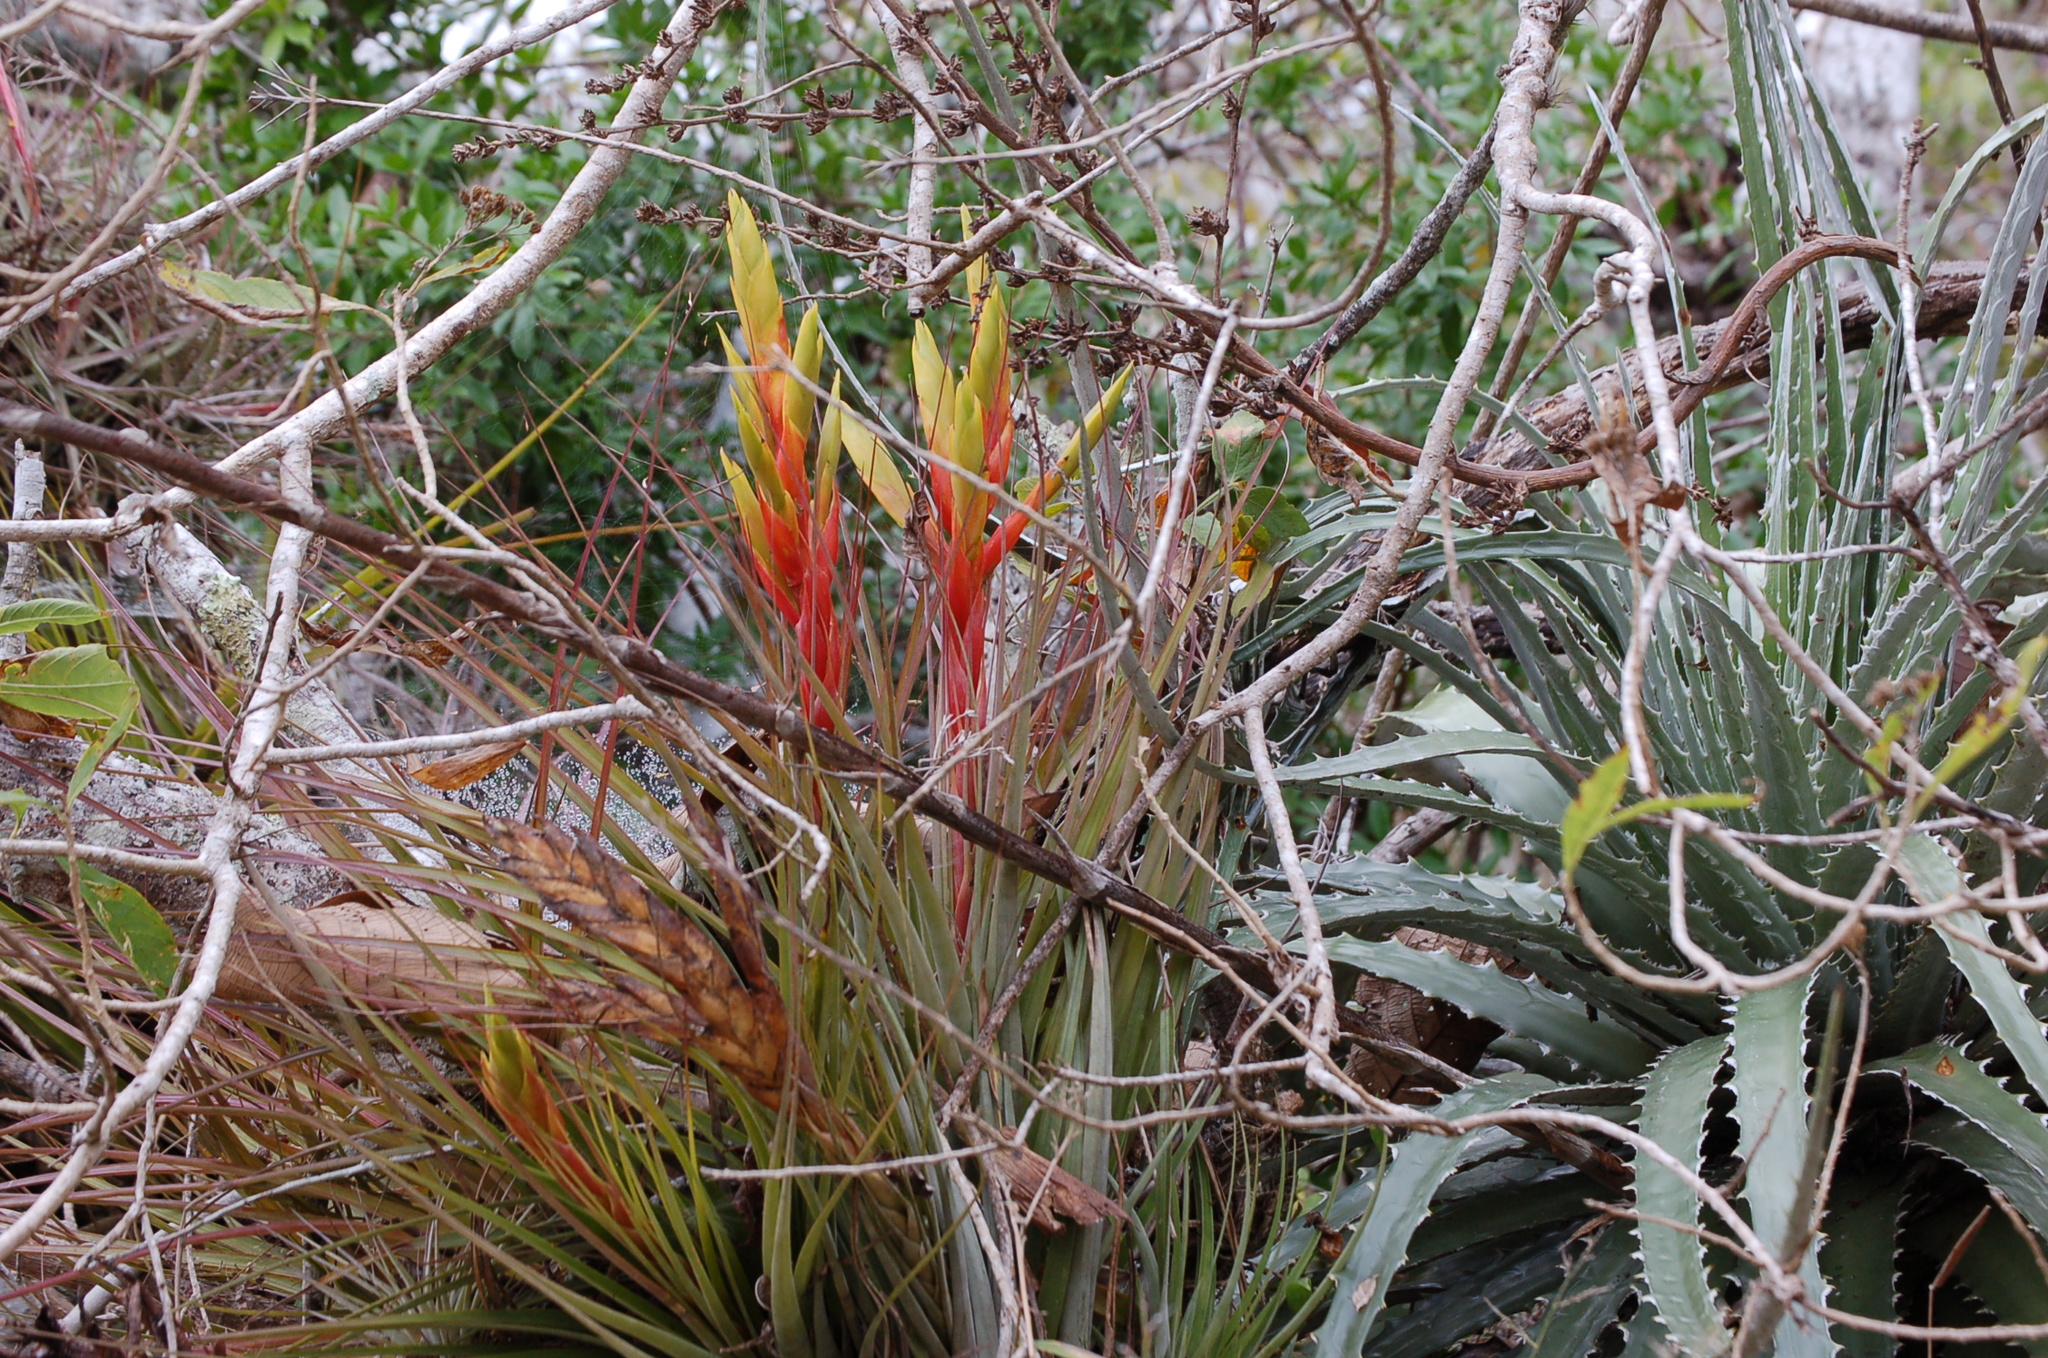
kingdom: Plantae
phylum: Tracheophyta
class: Liliopsida
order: Poales
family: Bromeliaceae
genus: Tillandsia
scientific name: Tillandsia fasciculata
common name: Giant airplant
